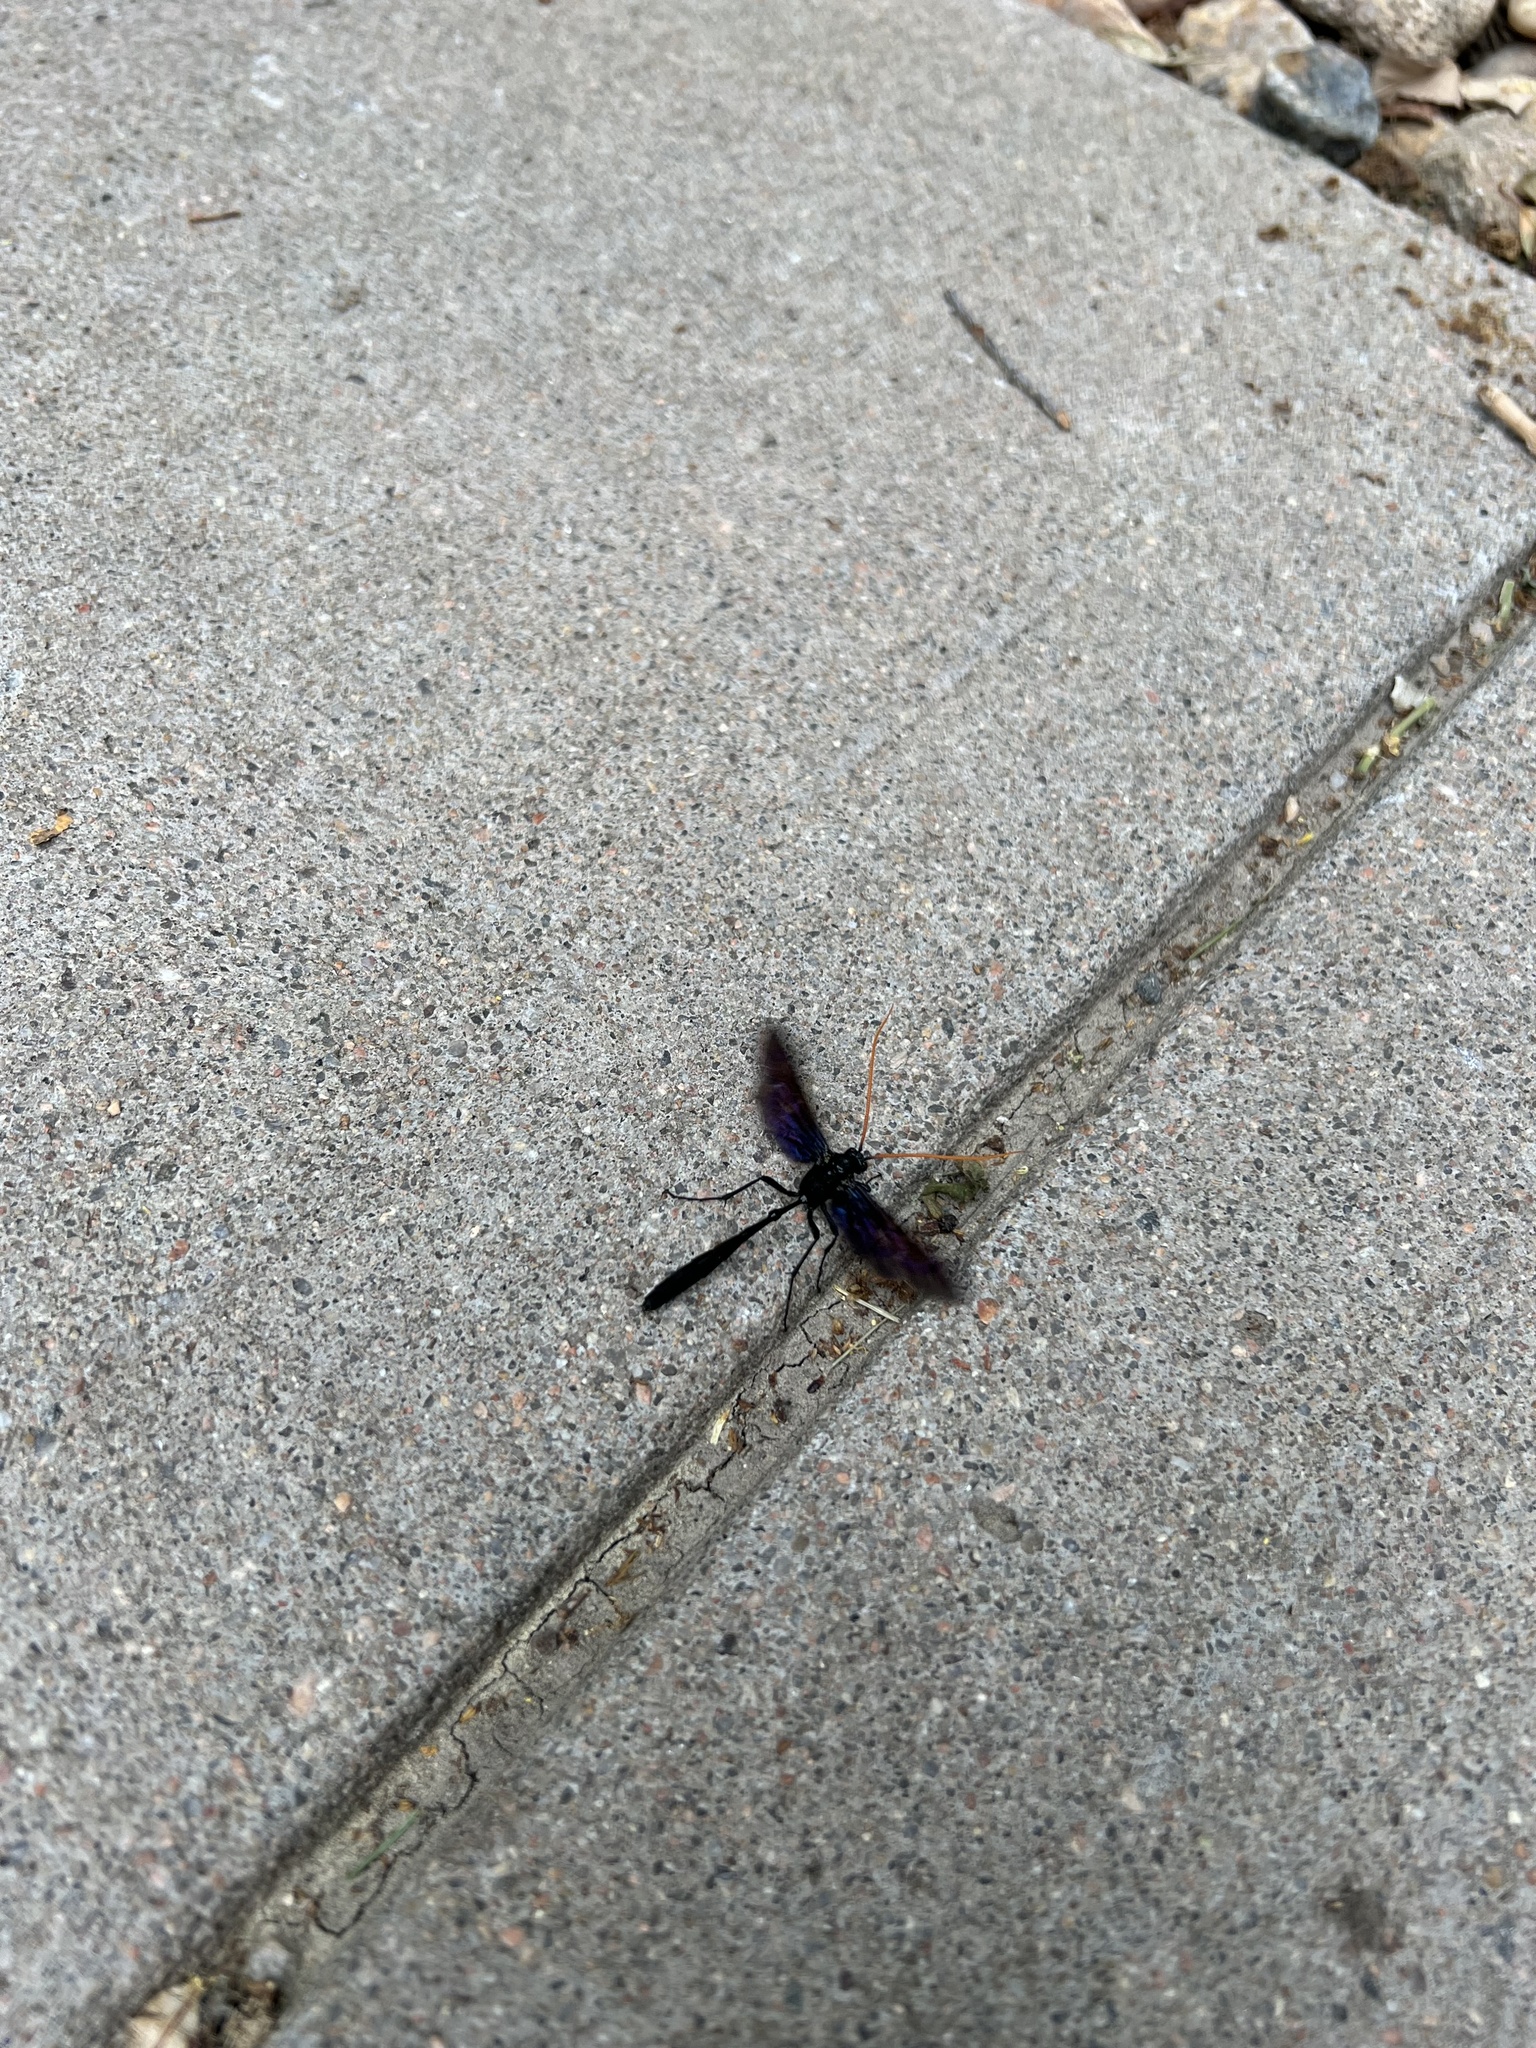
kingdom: Animalia
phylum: Arthropoda
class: Insecta
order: Hymenoptera
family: Ichneumonidae
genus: Thyreodon
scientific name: Thyreodon atricolor
